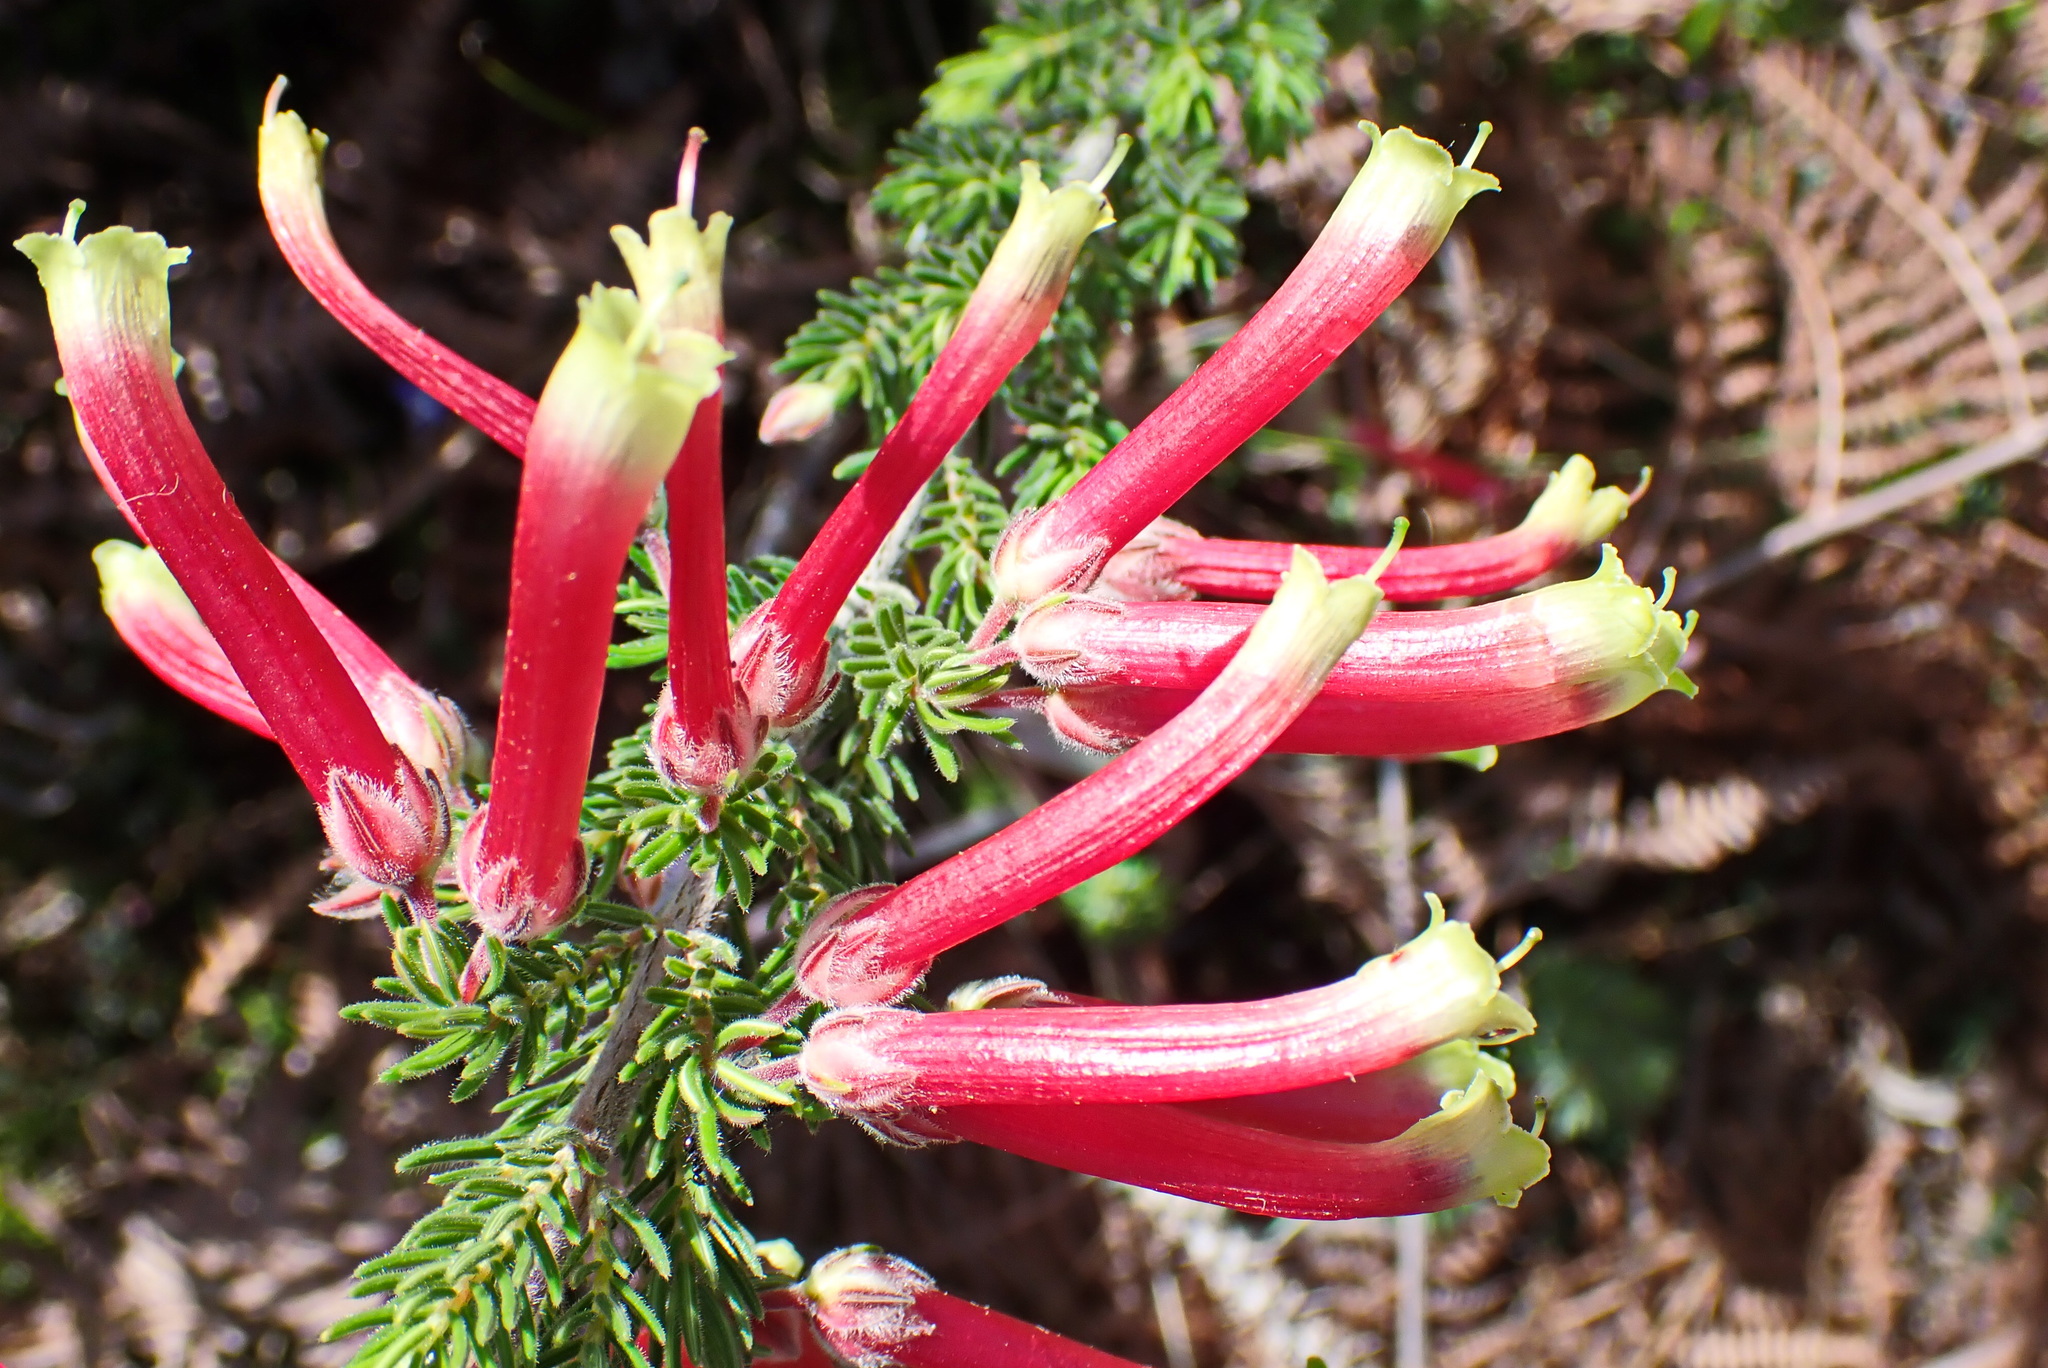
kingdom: Plantae
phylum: Tracheophyta
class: Magnoliopsida
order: Ericales
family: Ericaceae
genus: Erica
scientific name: Erica unicolor
